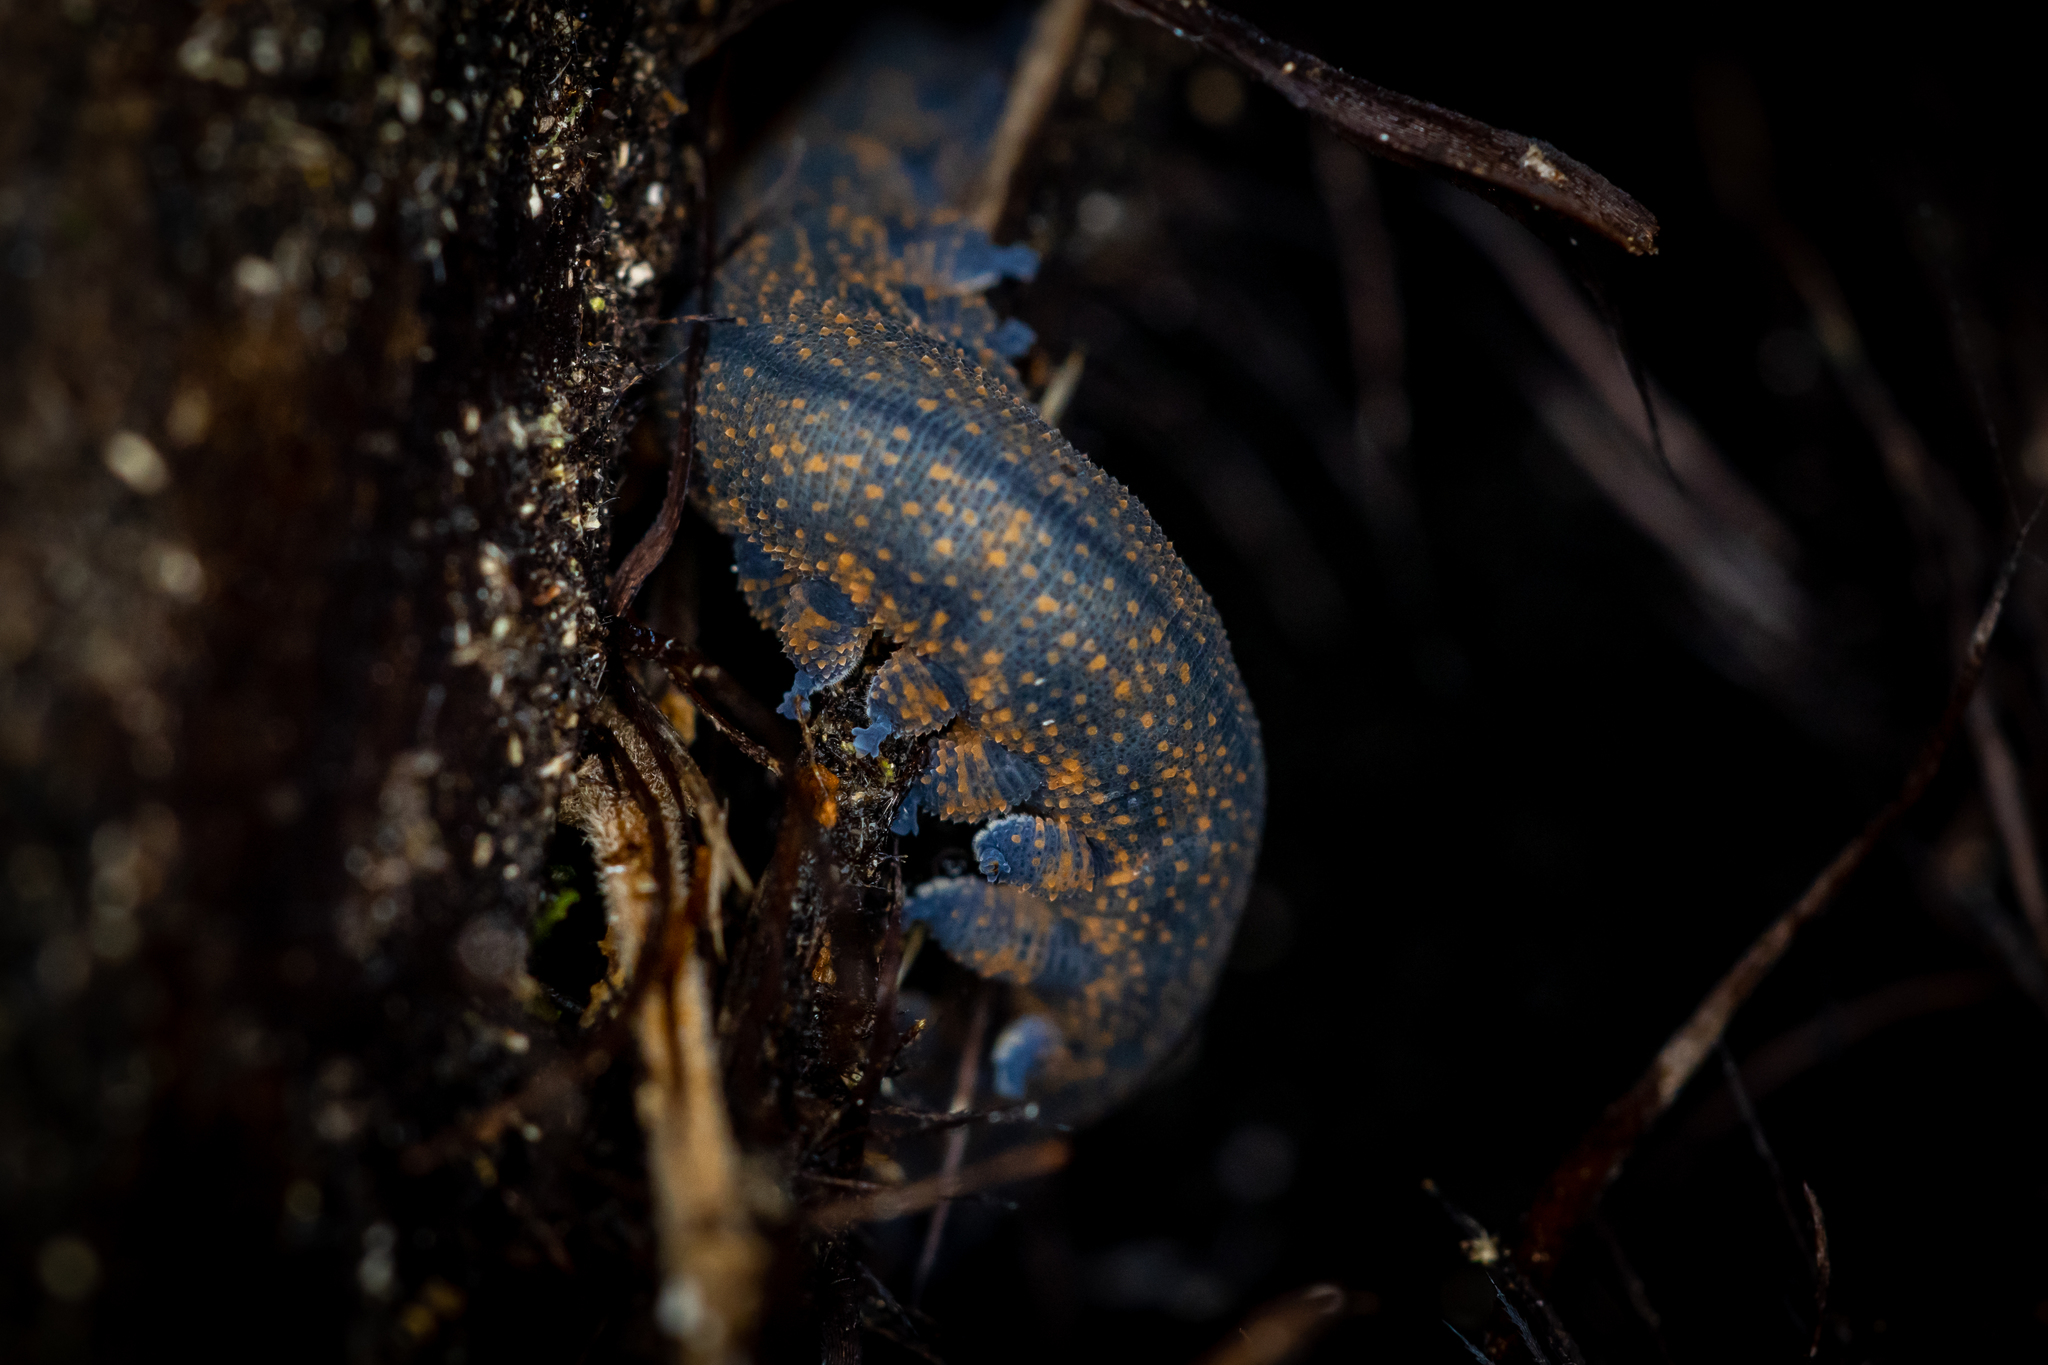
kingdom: Animalia
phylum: Onychophora
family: Peripatopsidae
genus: Peripatoides
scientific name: Peripatoides novaezealandiae
